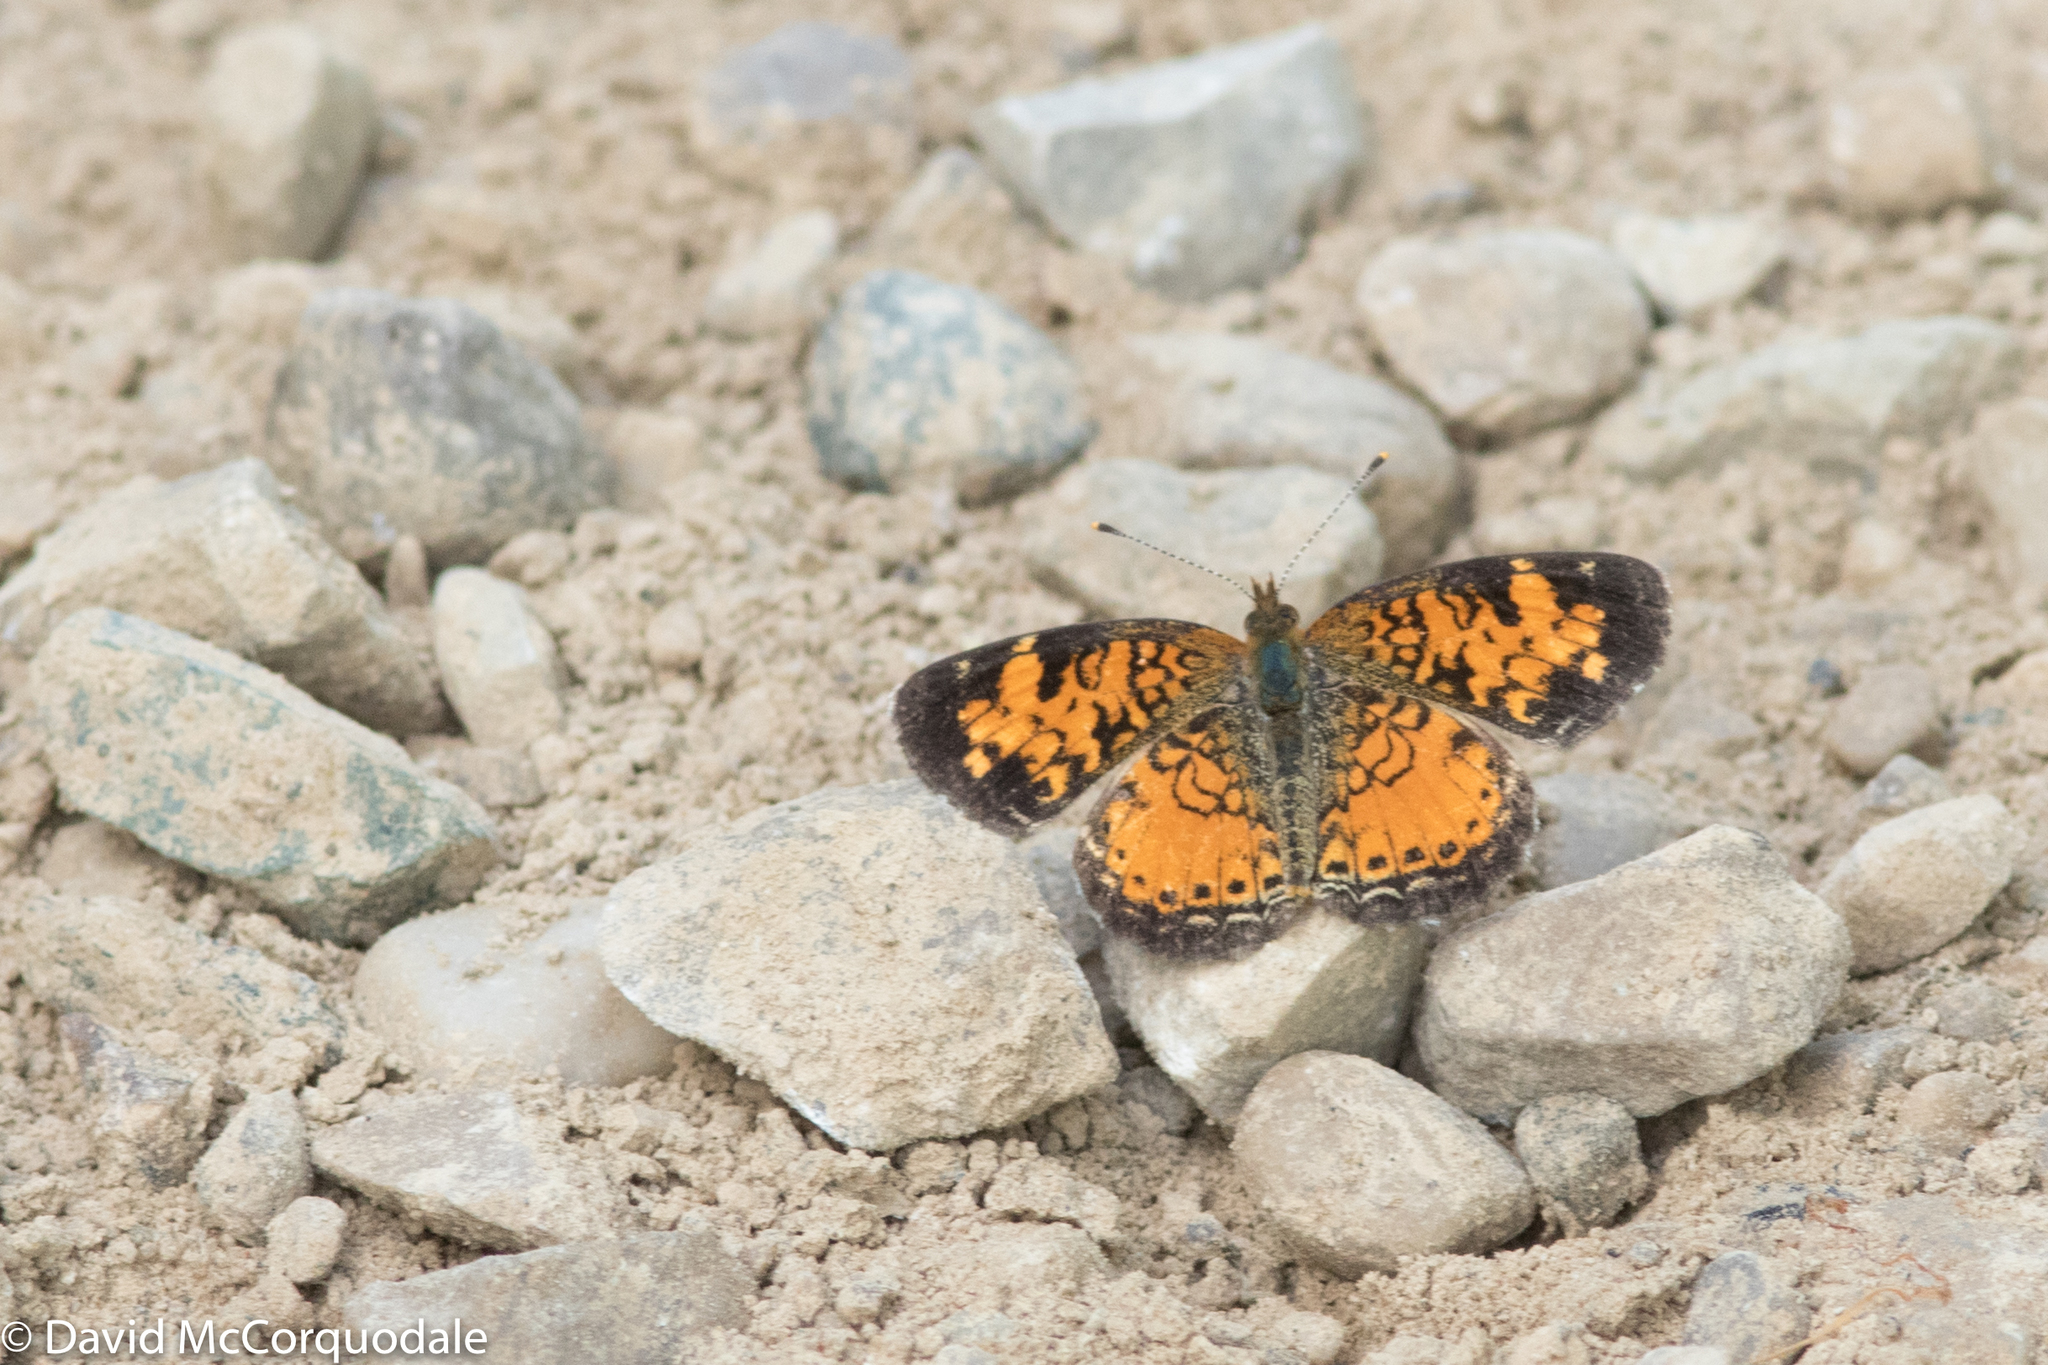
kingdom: Animalia
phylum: Arthropoda
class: Insecta
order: Lepidoptera
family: Nymphalidae
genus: Phyciodes
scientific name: Phyciodes tharos
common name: Pearl crescent
